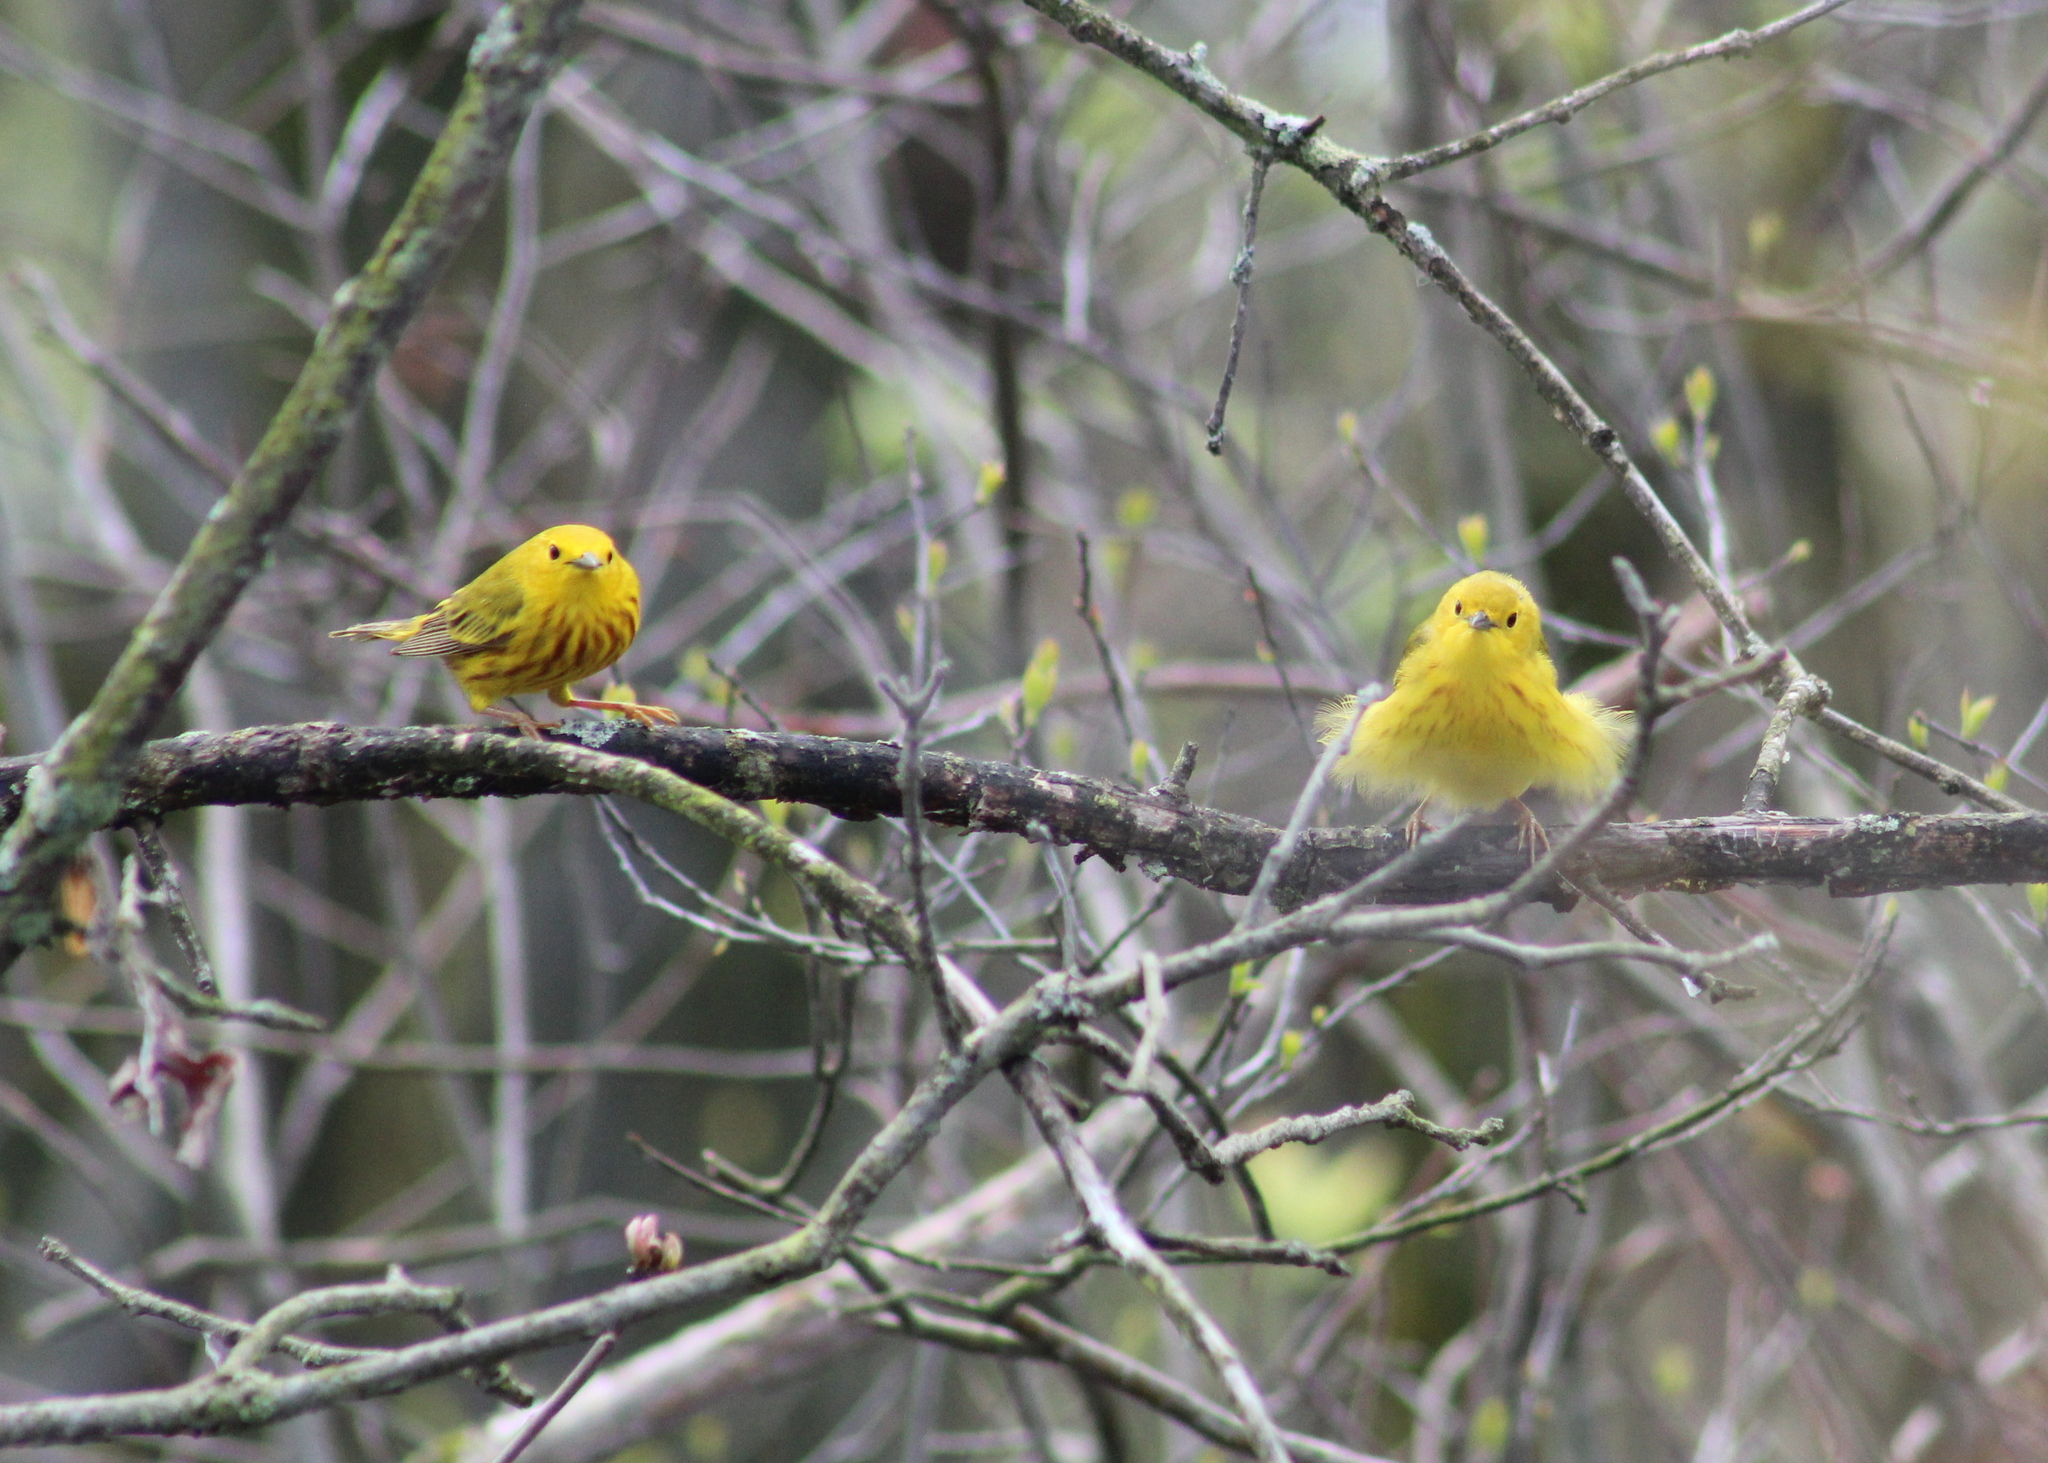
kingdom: Animalia
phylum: Chordata
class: Aves
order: Passeriformes
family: Parulidae
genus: Setophaga
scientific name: Setophaga petechia
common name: Yellow warbler
